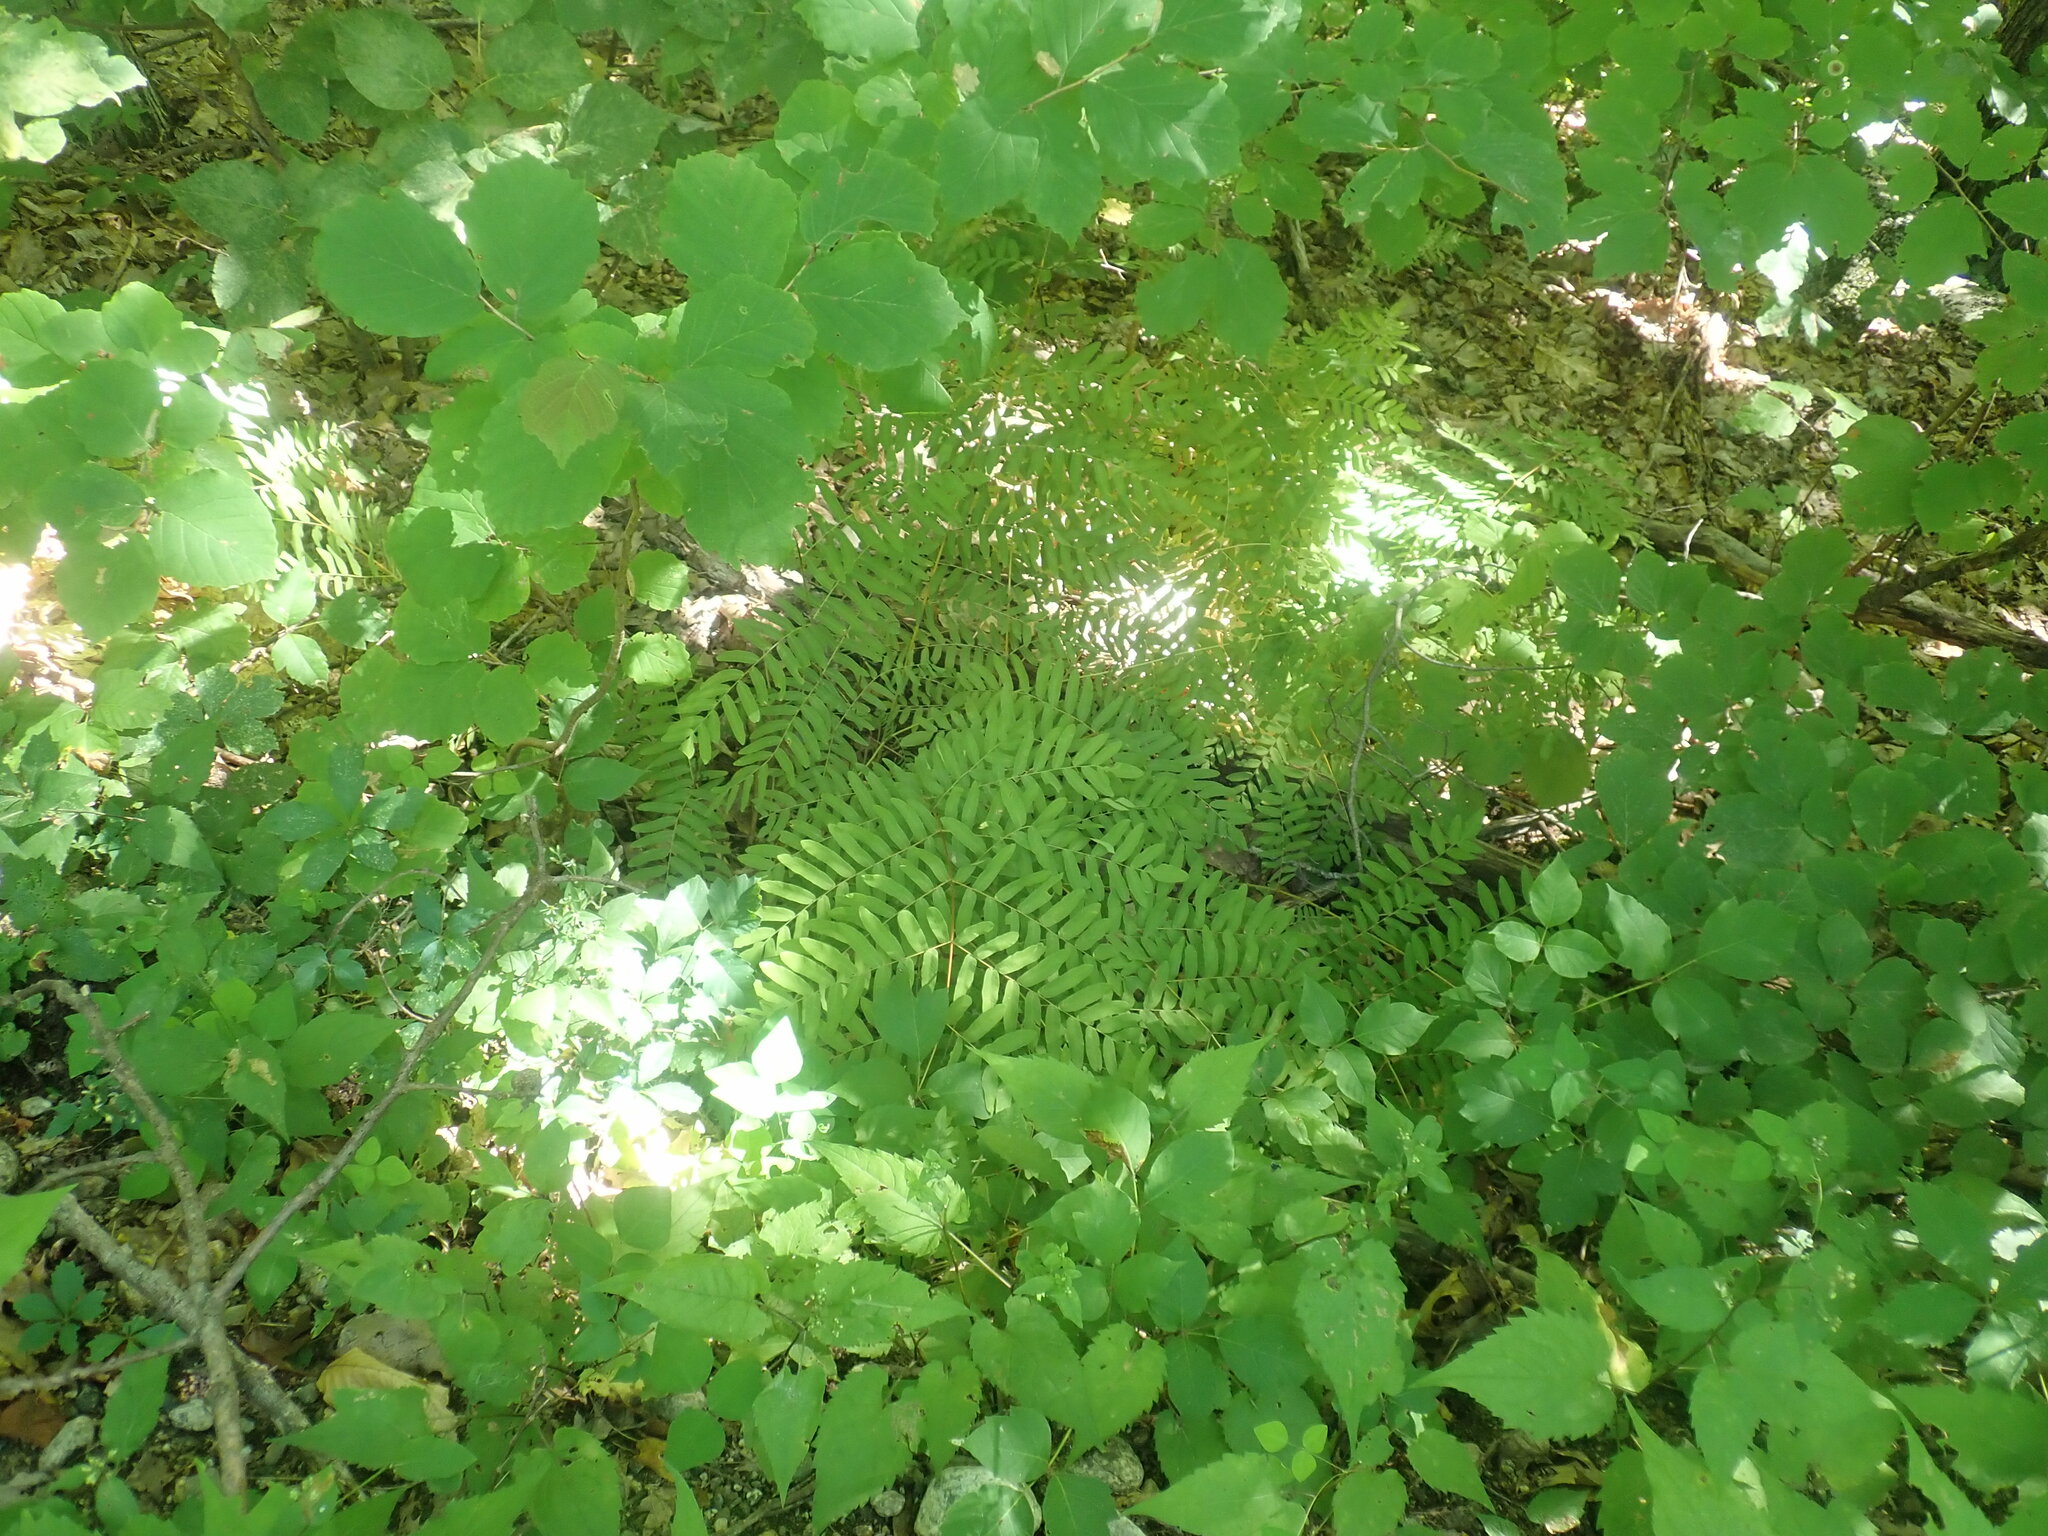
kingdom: Plantae
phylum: Tracheophyta
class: Polypodiopsida
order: Osmundales
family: Osmundaceae
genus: Osmunda
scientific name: Osmunda spectabilis
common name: American royal fern
